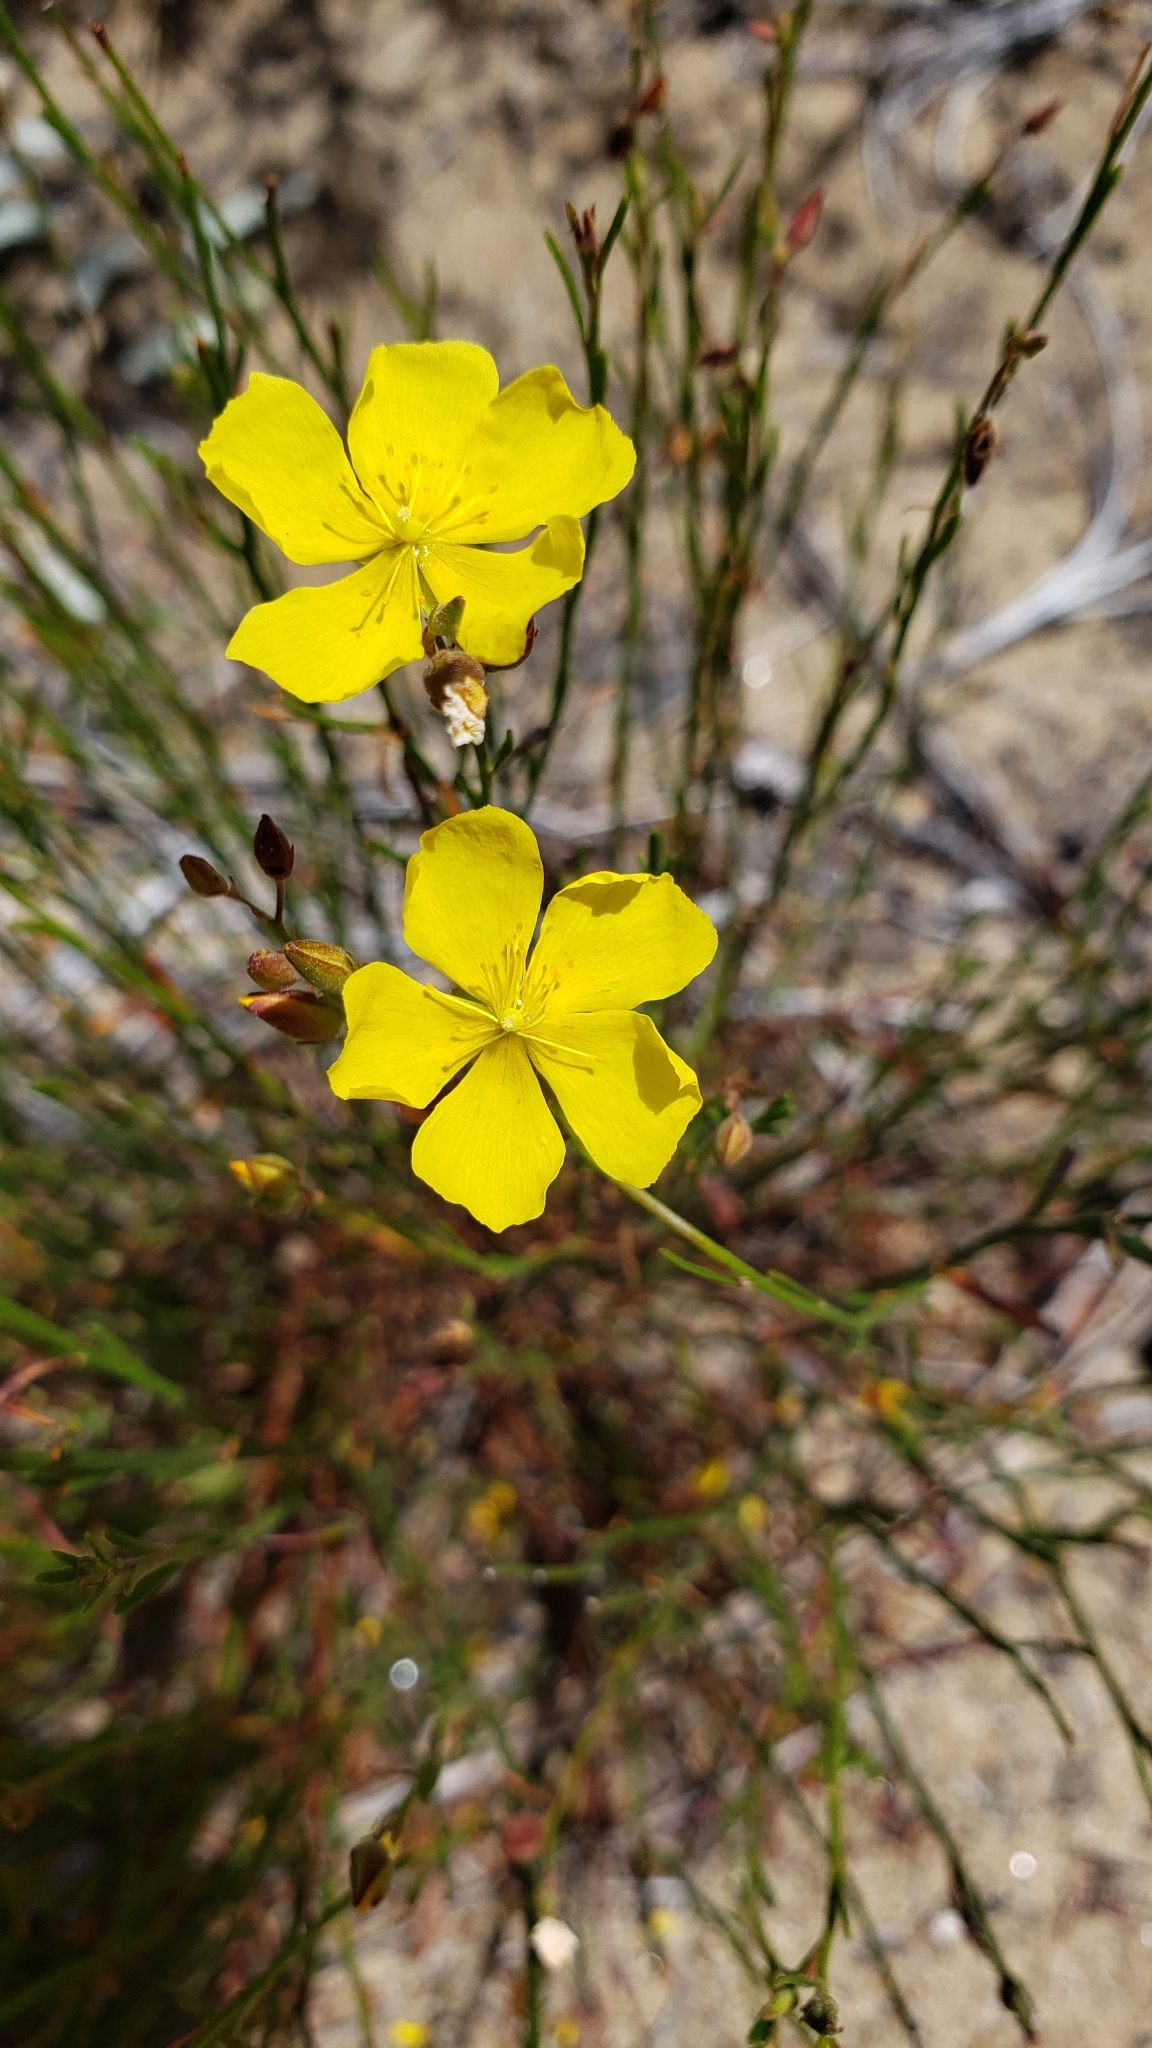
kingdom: Plantae
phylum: Tracheophyta
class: Magnoliopsida
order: Malvales
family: Cistaceae
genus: Crocanthemum
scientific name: Crocanthemum scoparium
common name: Broom-rose
